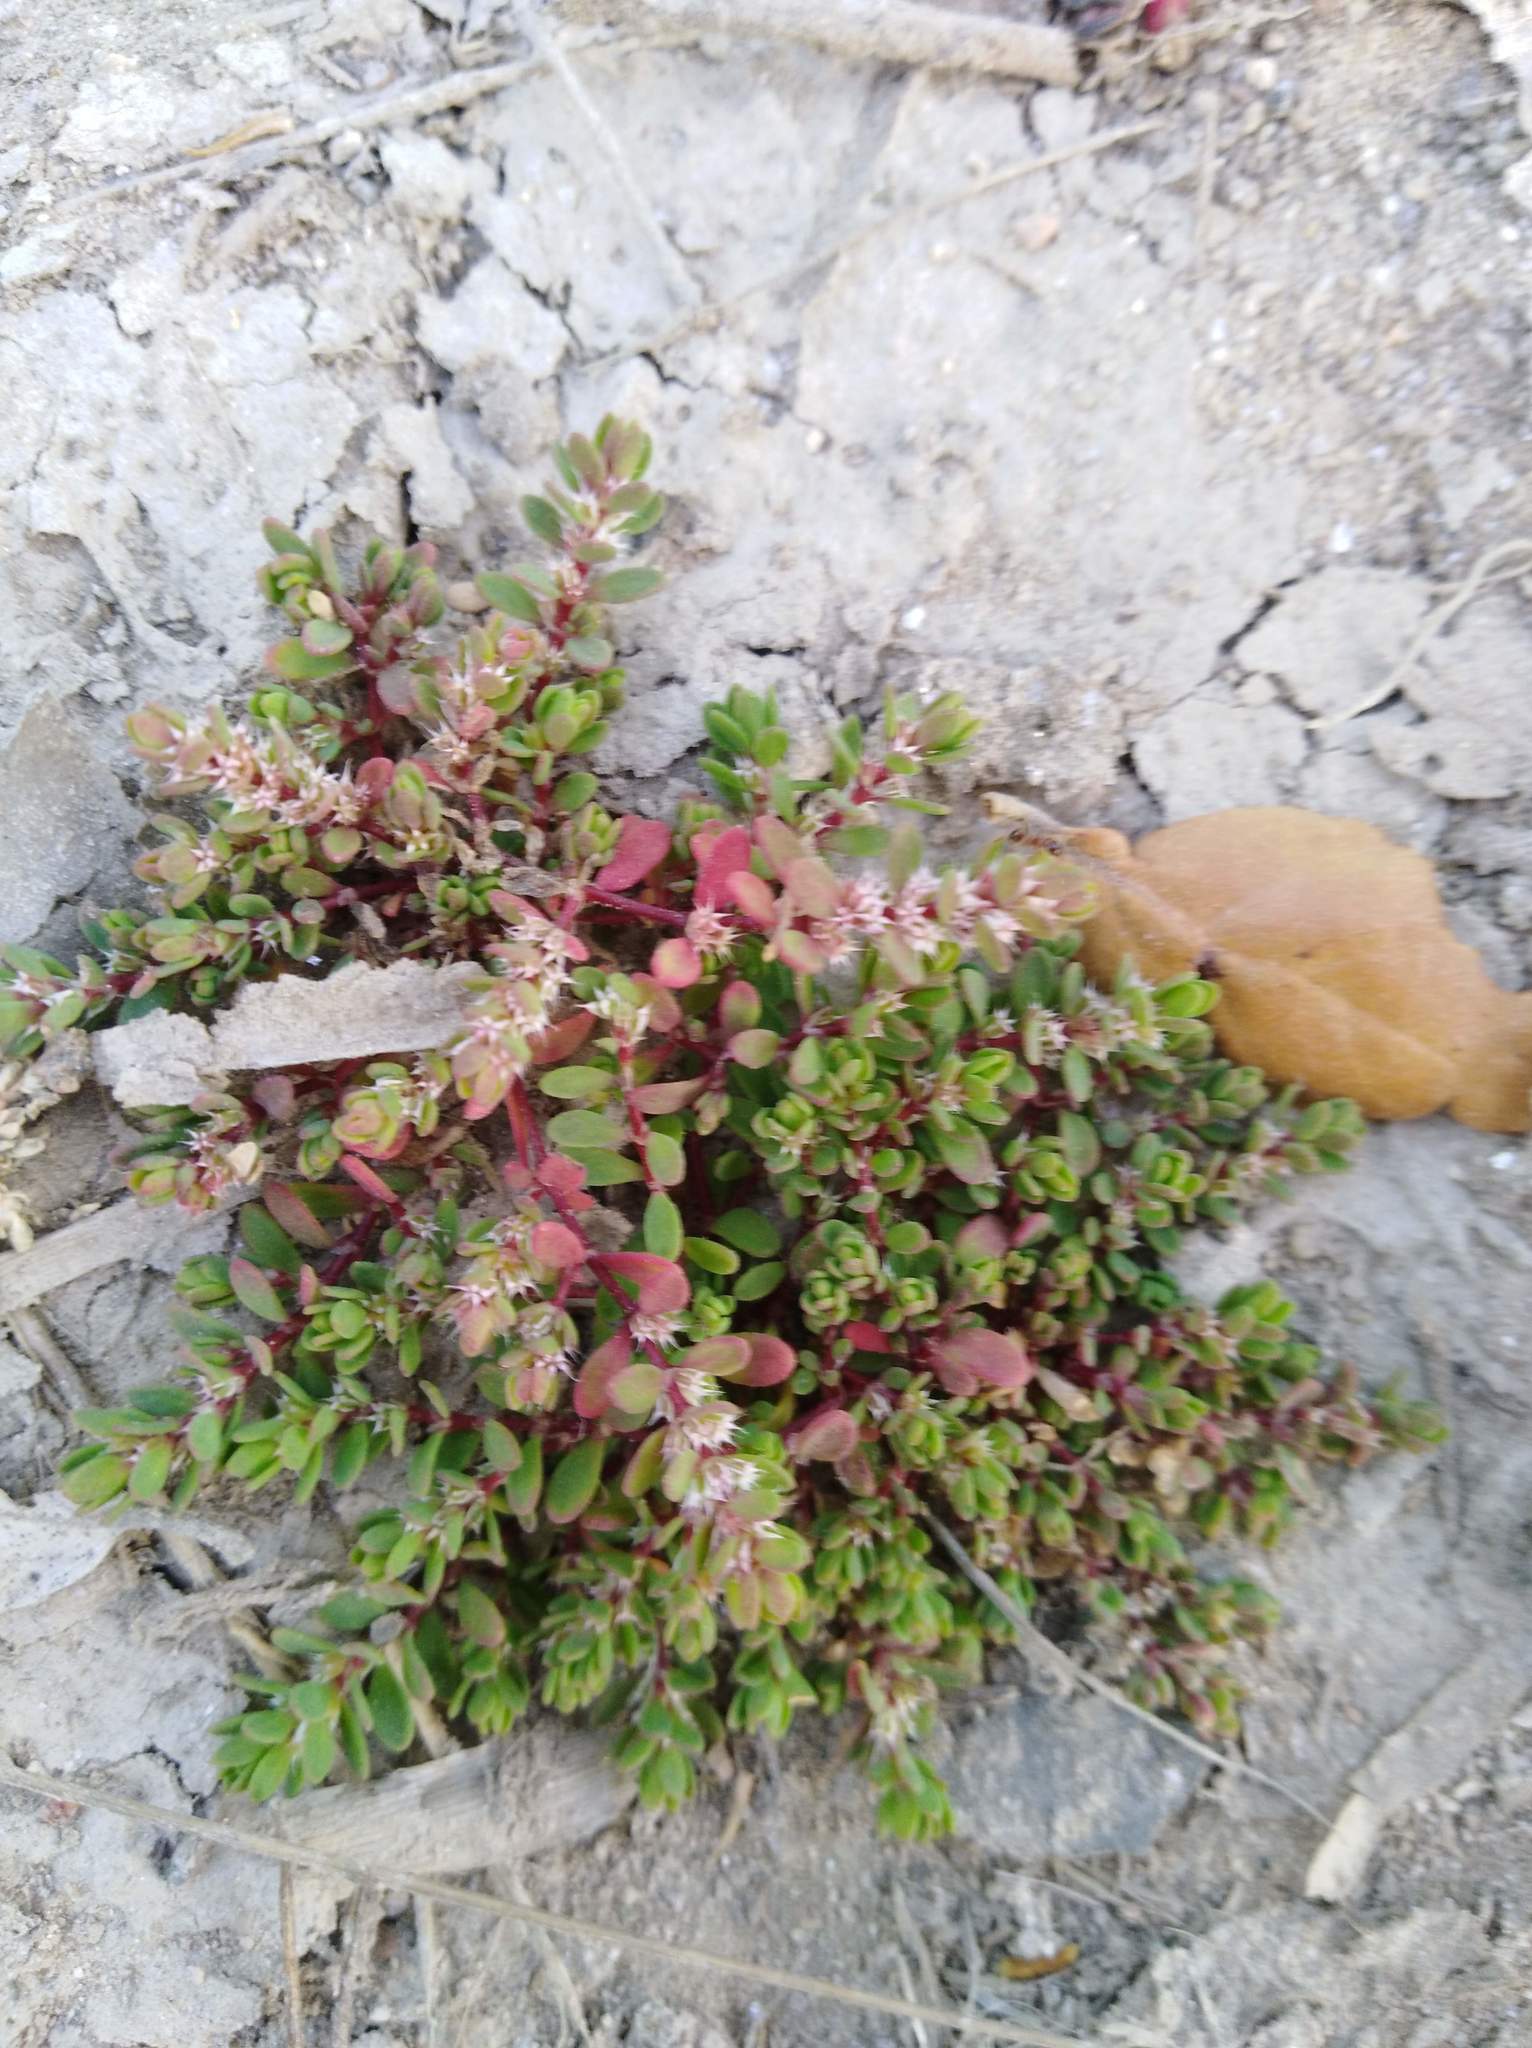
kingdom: Plantae
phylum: Tracheophyta
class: Magnoliopsida
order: Caryophyllales
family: Caryophyllaceae
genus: Illecebrum
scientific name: Illecebrum verticillatum
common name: Coral necklace
